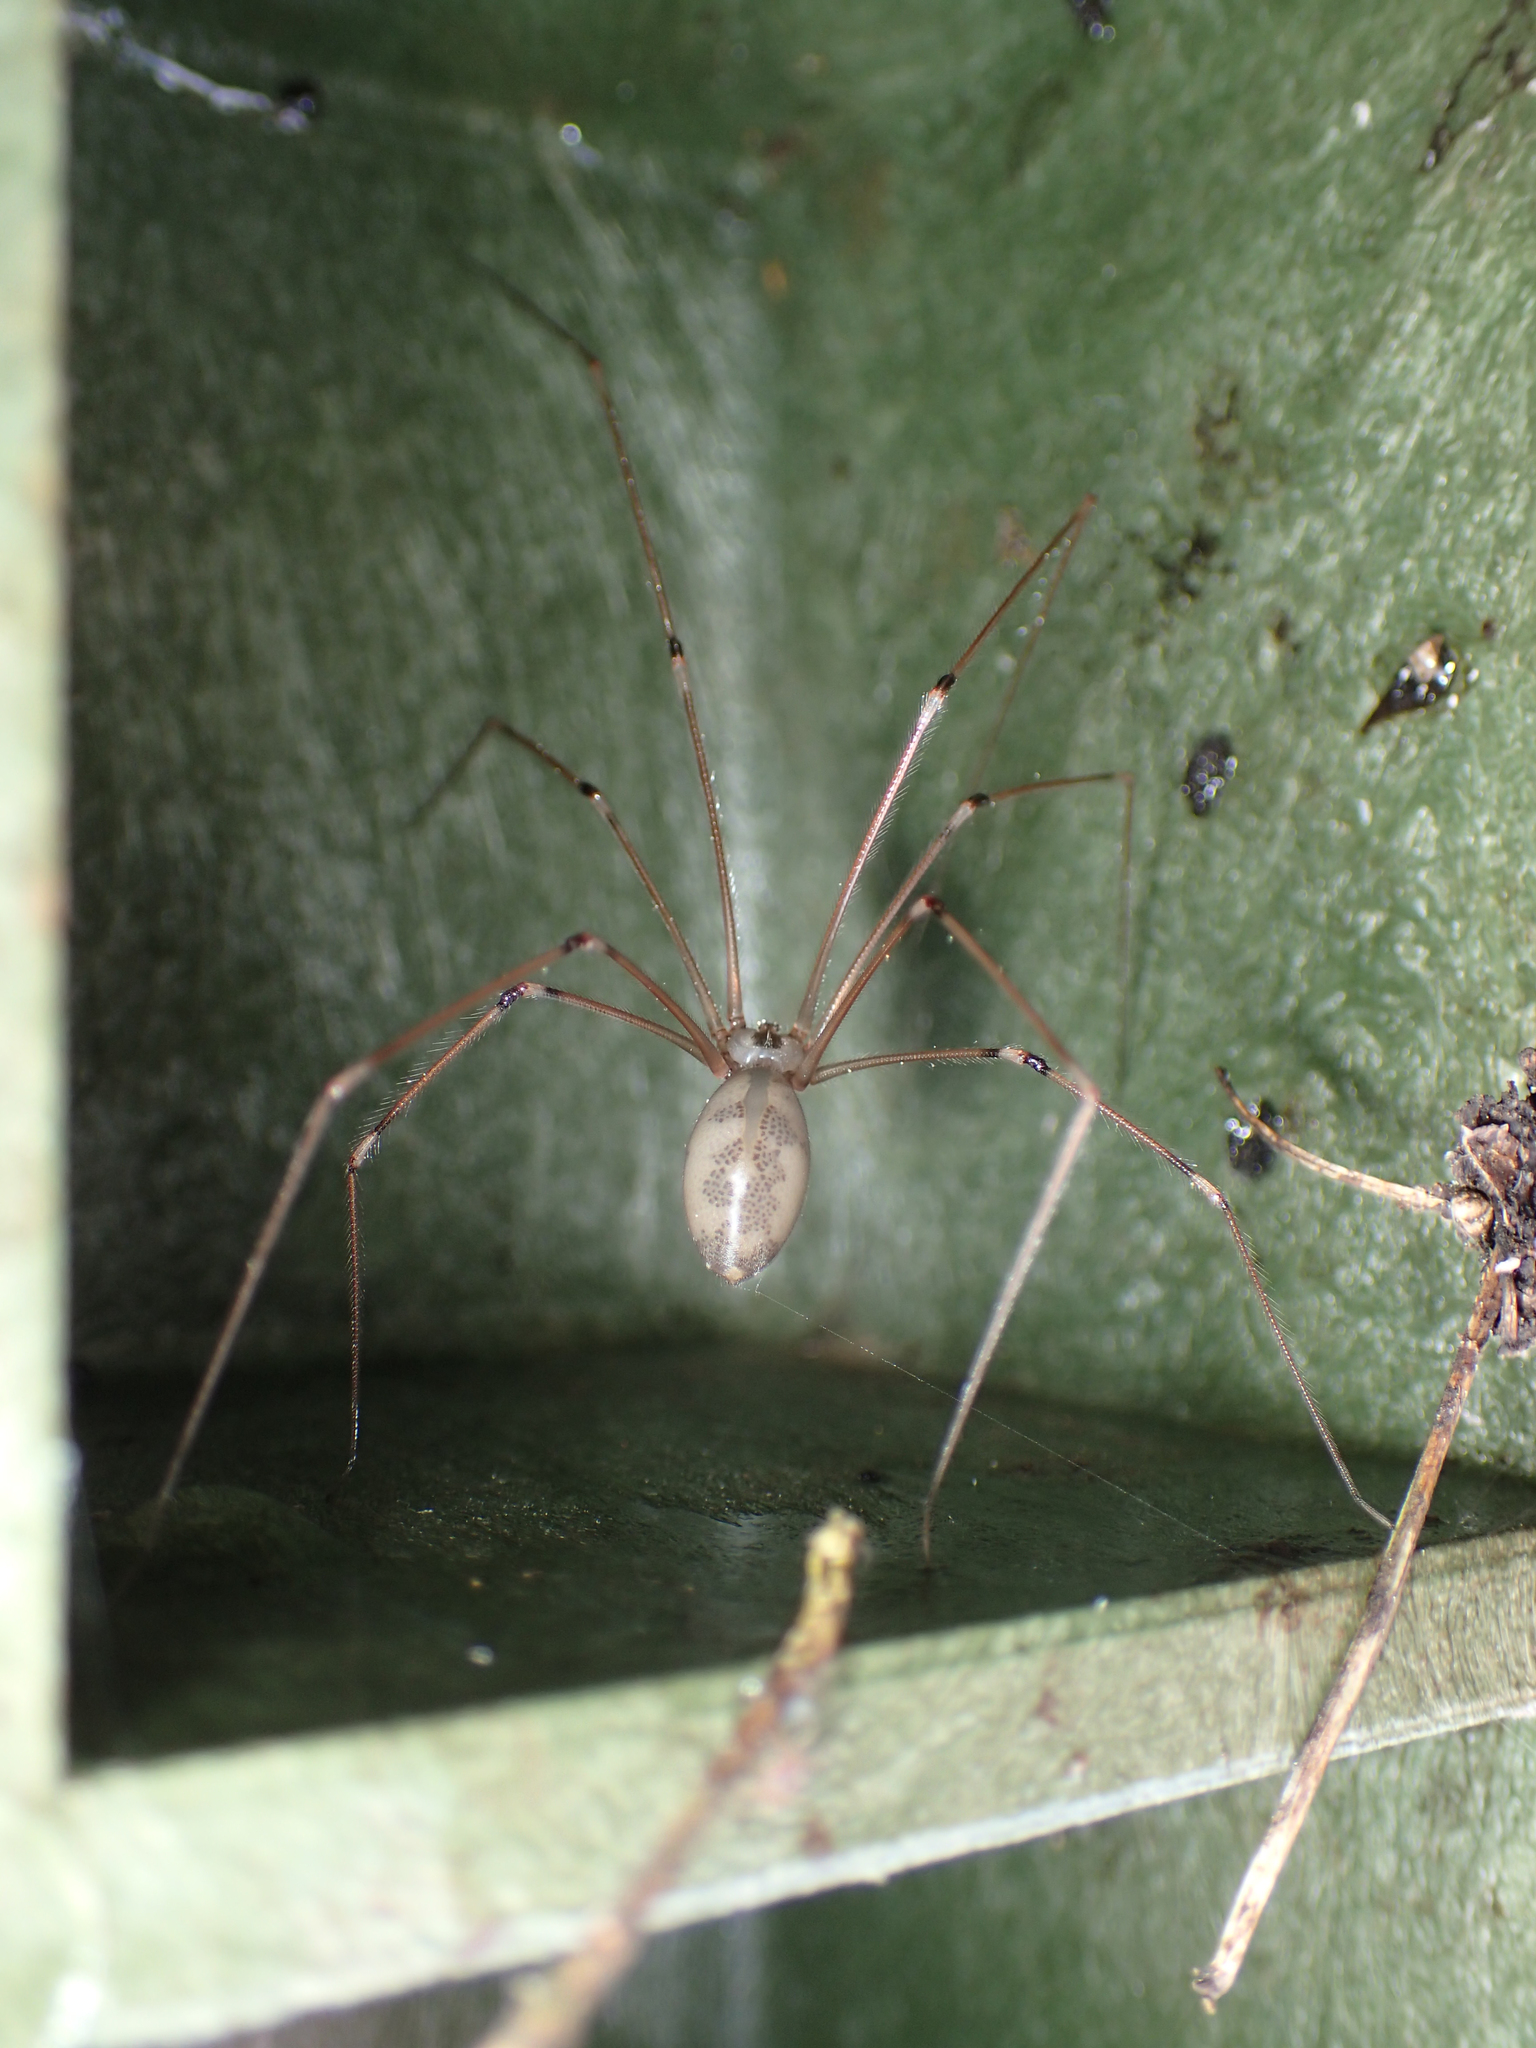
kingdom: Animalia
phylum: Arthropoda
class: Arachnida
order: Araneae
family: Pholcidae
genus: Pholcus
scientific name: Pholcus phalangioides
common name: Longbodied cellar spider
